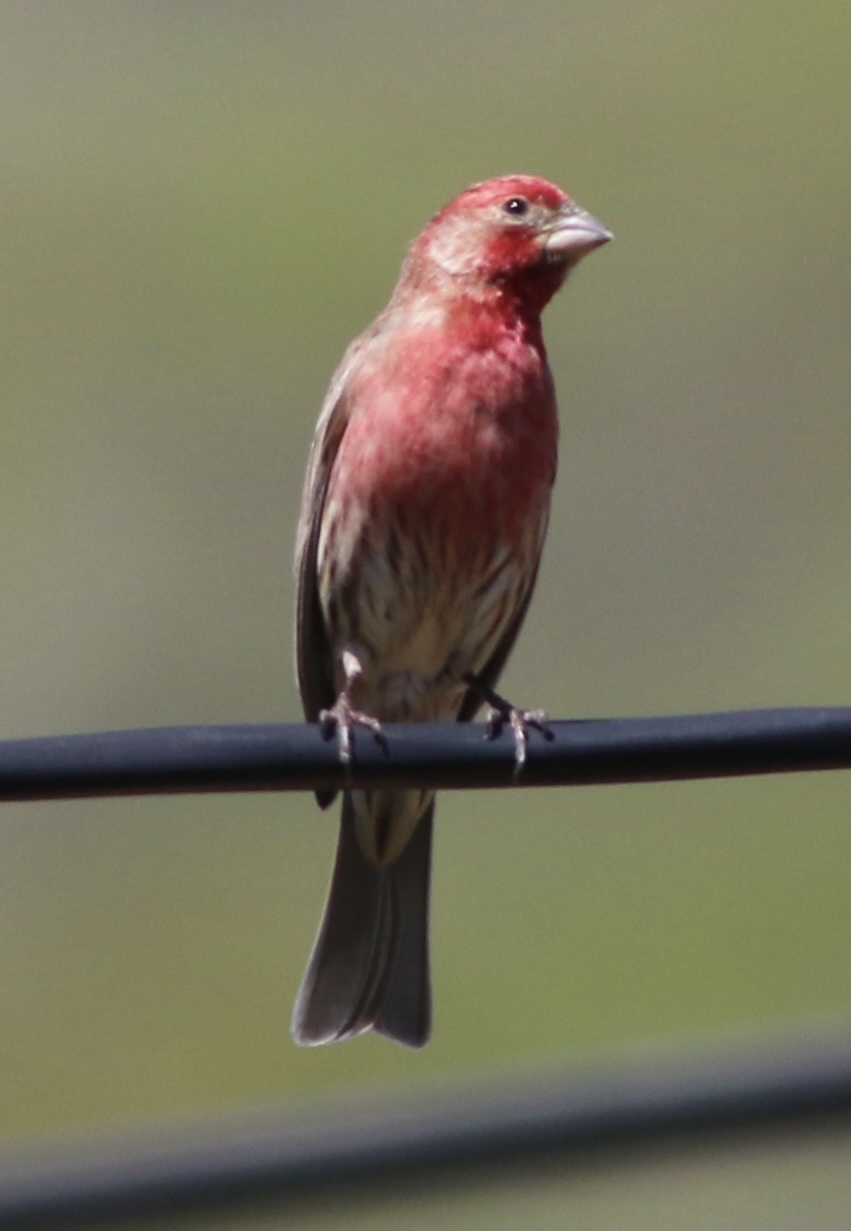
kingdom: Animalia
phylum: Chordata
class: Aves
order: Passeriformes
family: Fringillidae
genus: Haemorhous
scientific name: Haemorhous mexicanus
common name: House finch
